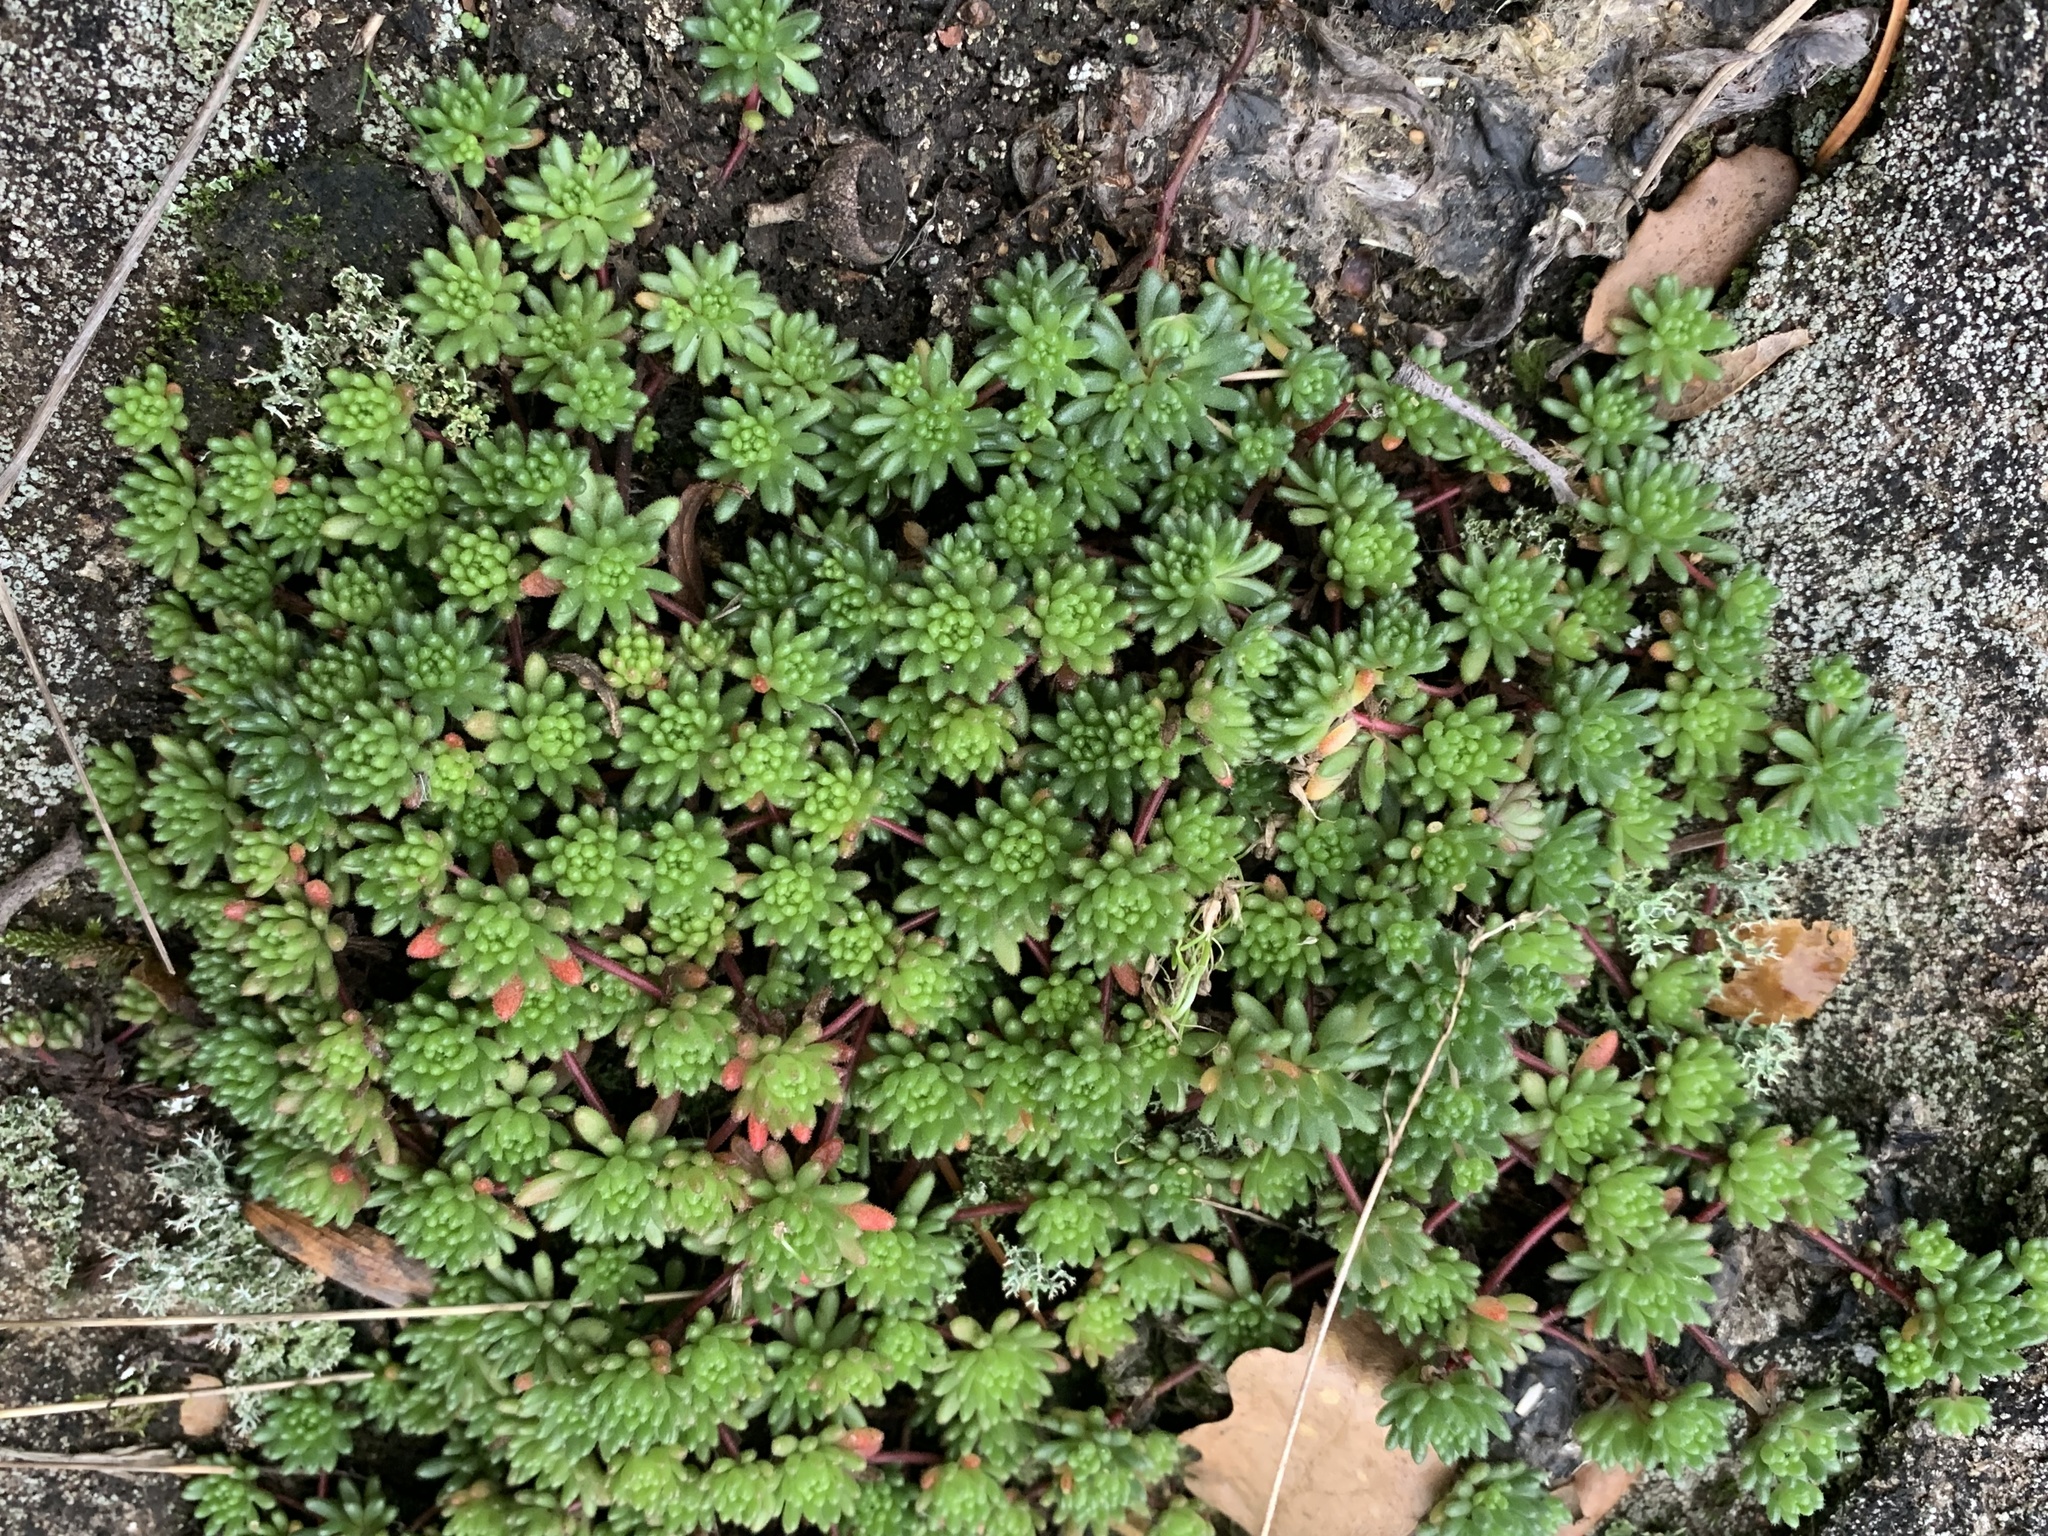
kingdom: Plantae
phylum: Tracheophyta
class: Magnoliopsida
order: Saxifragales
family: Crassulaceae
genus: Sedum
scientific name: Sedum hirsutum
